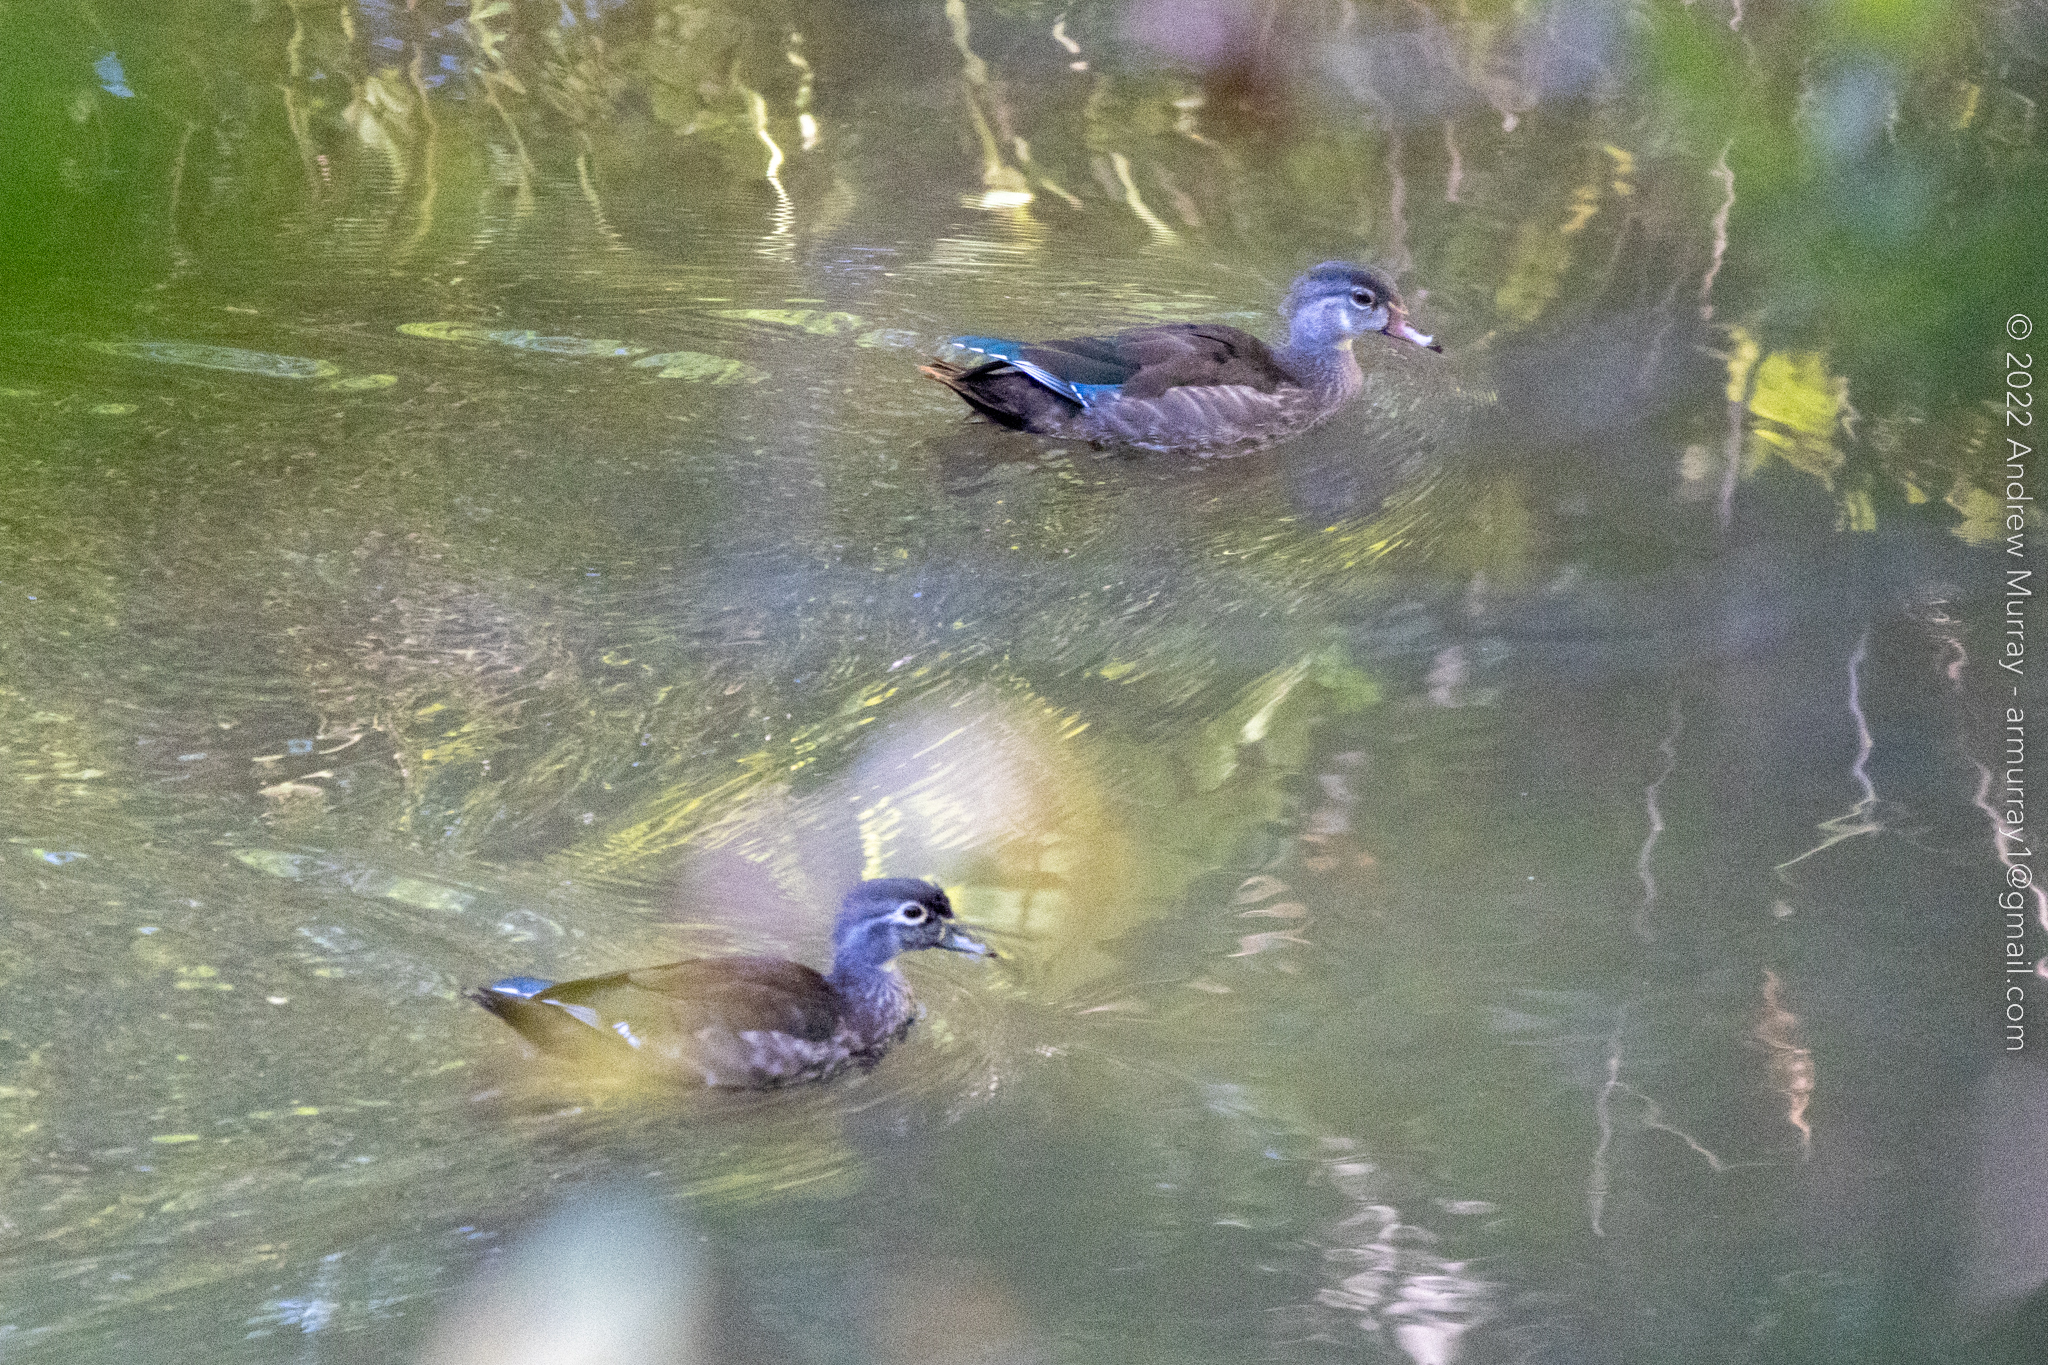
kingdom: Animalia
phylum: Chordata
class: Aves
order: Anseriformes
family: Anatidae
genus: Aix
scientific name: Aix sponsa
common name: Wood duck
